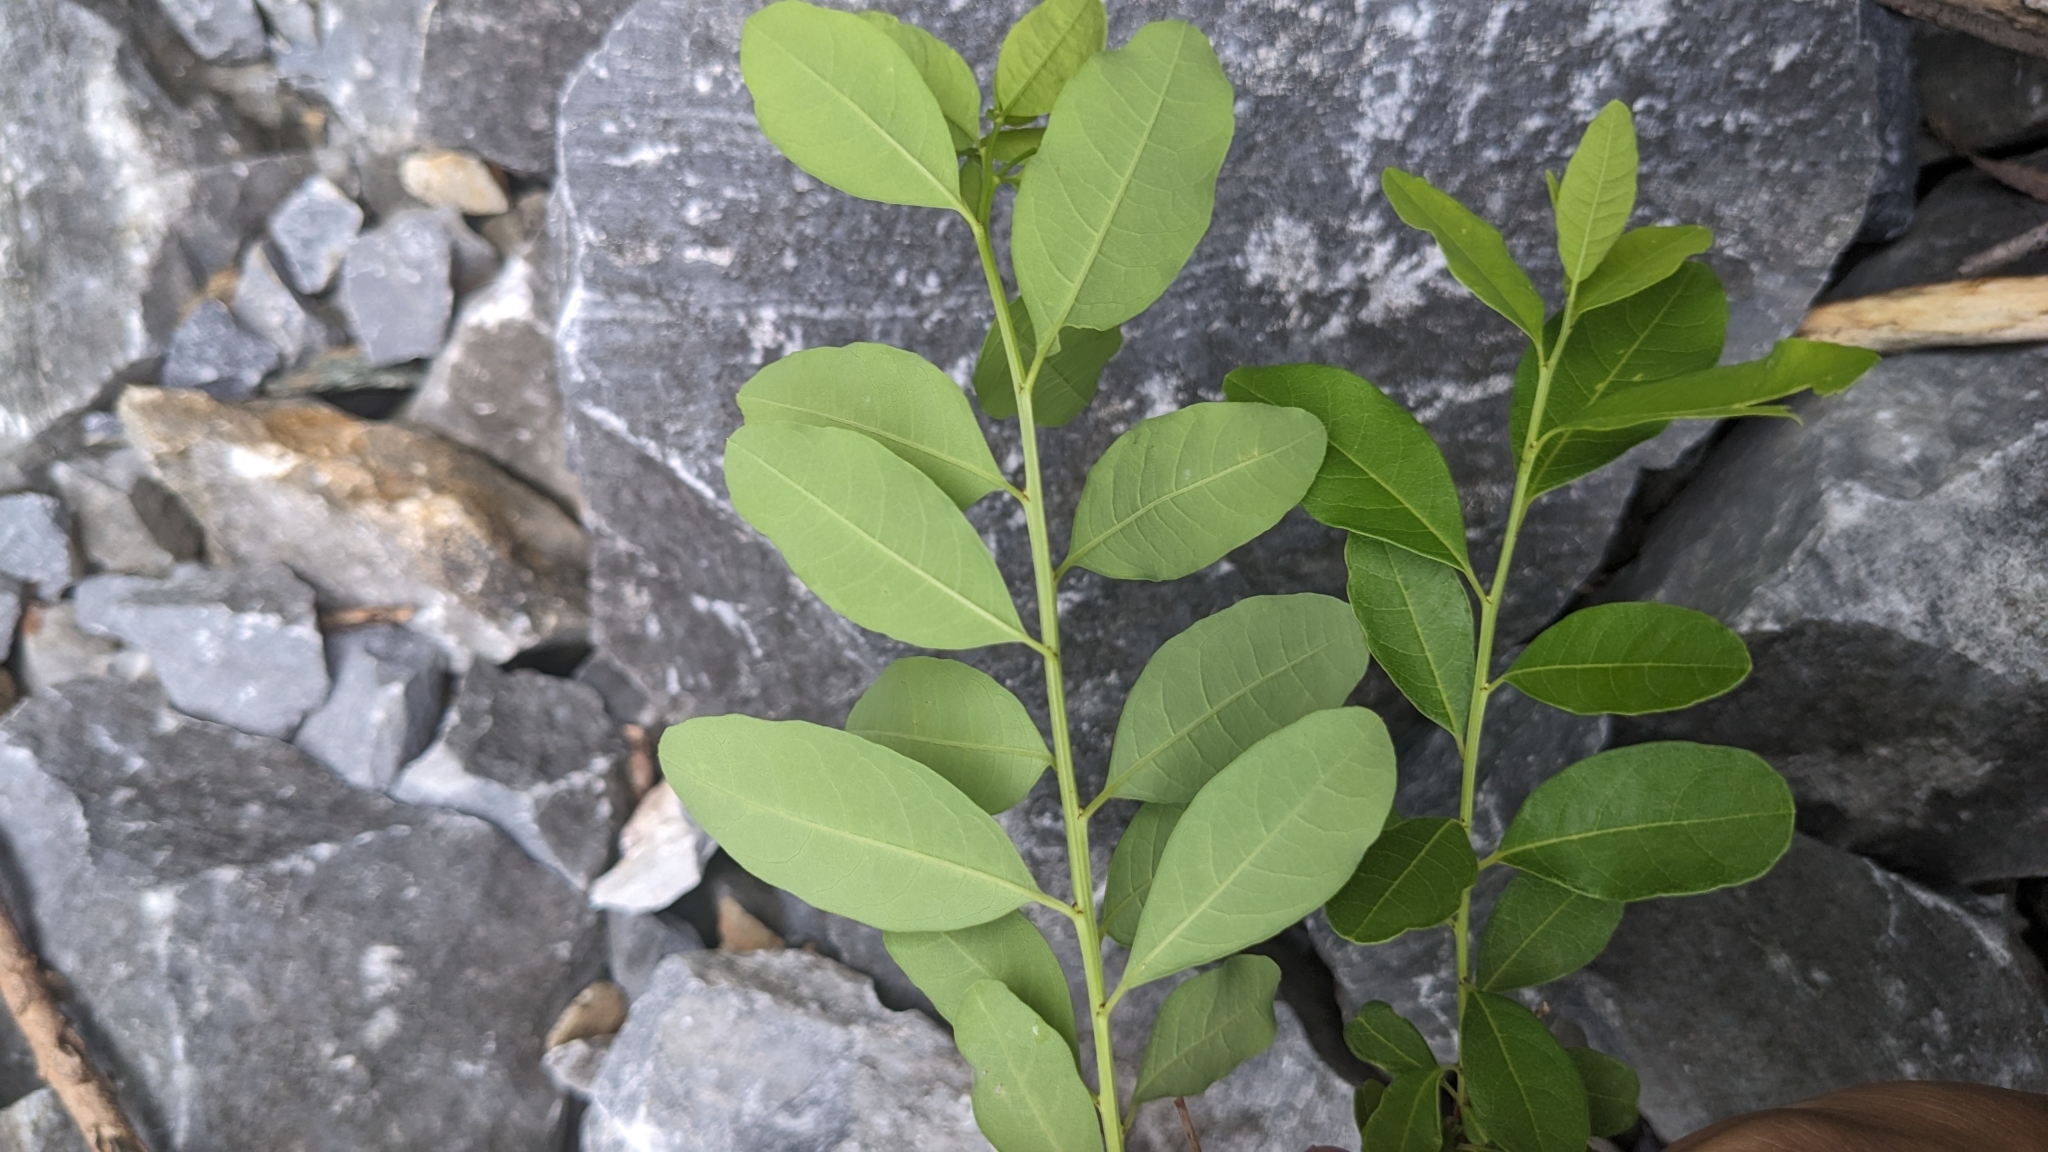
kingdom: Plantae
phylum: Tracheophyta
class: Magnoliopsida
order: Malpighiales
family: Phyllanthaceae
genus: Flueggea
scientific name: Flueggea suffruticosa
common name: Arching bushweed
